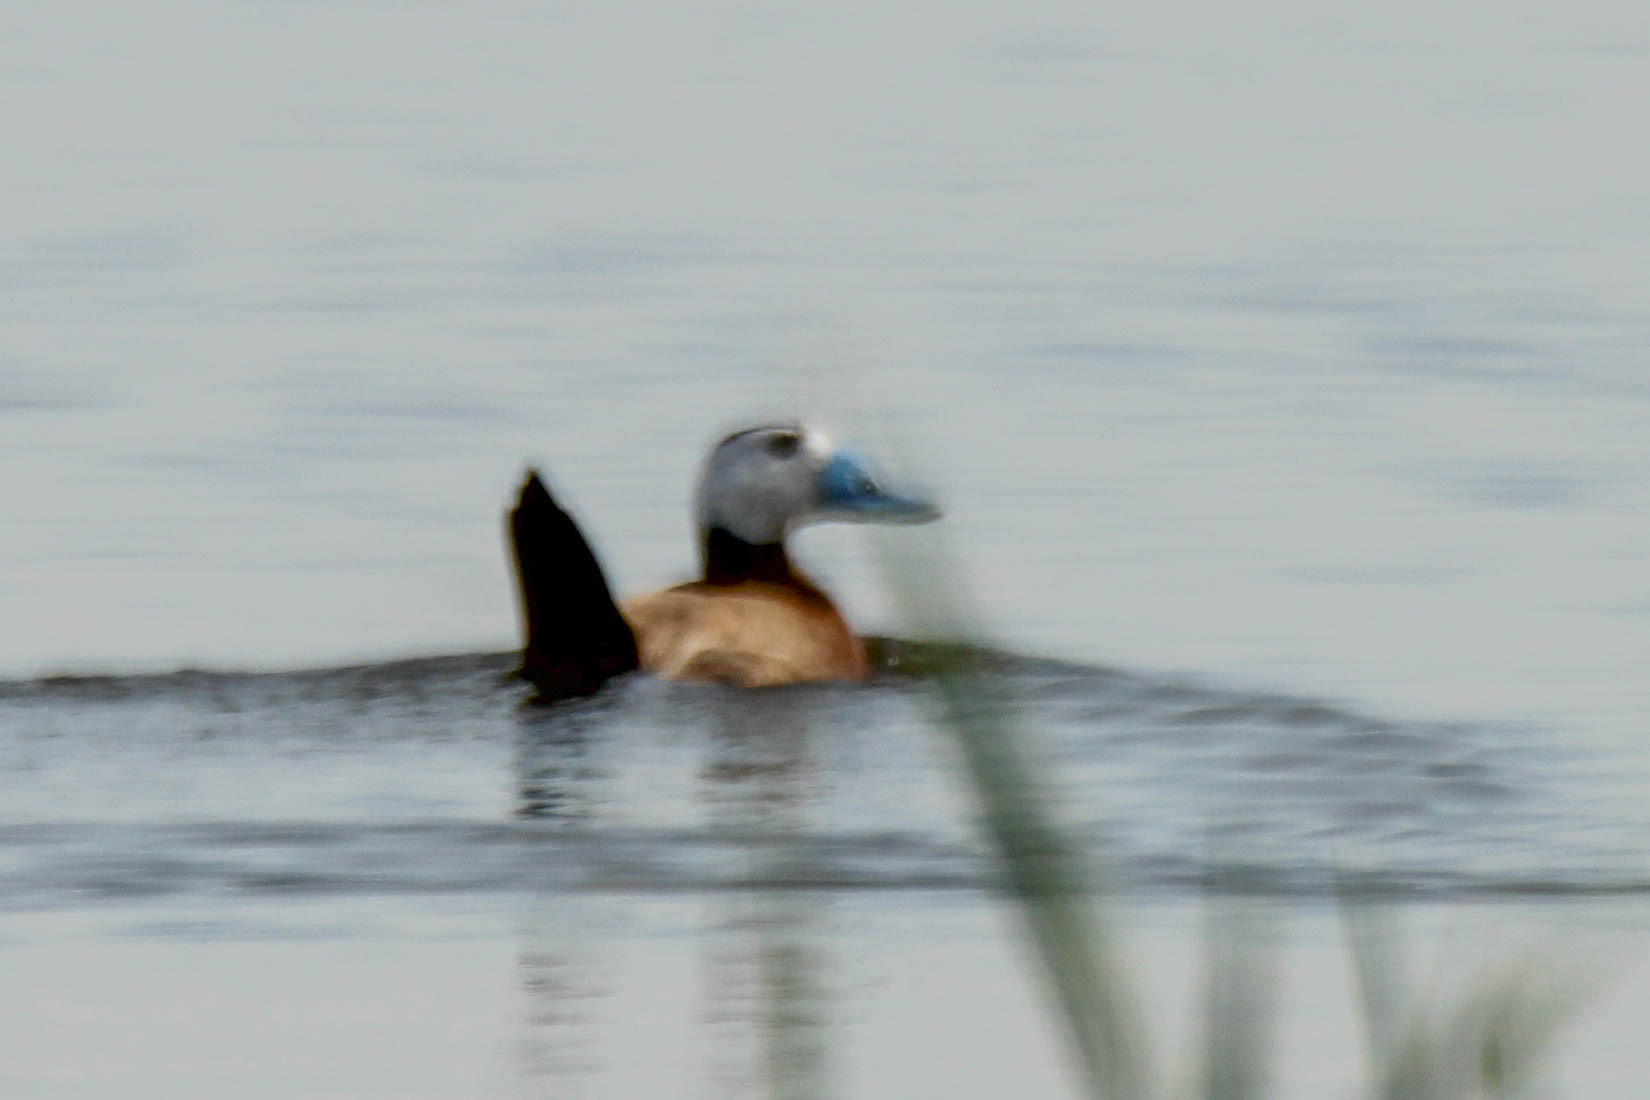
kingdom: Animalia
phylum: Chordata
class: Aves
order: Anseriformes
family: Anatidae
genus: Oxyura
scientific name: Oxyura leucocephala
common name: White-headed duck
